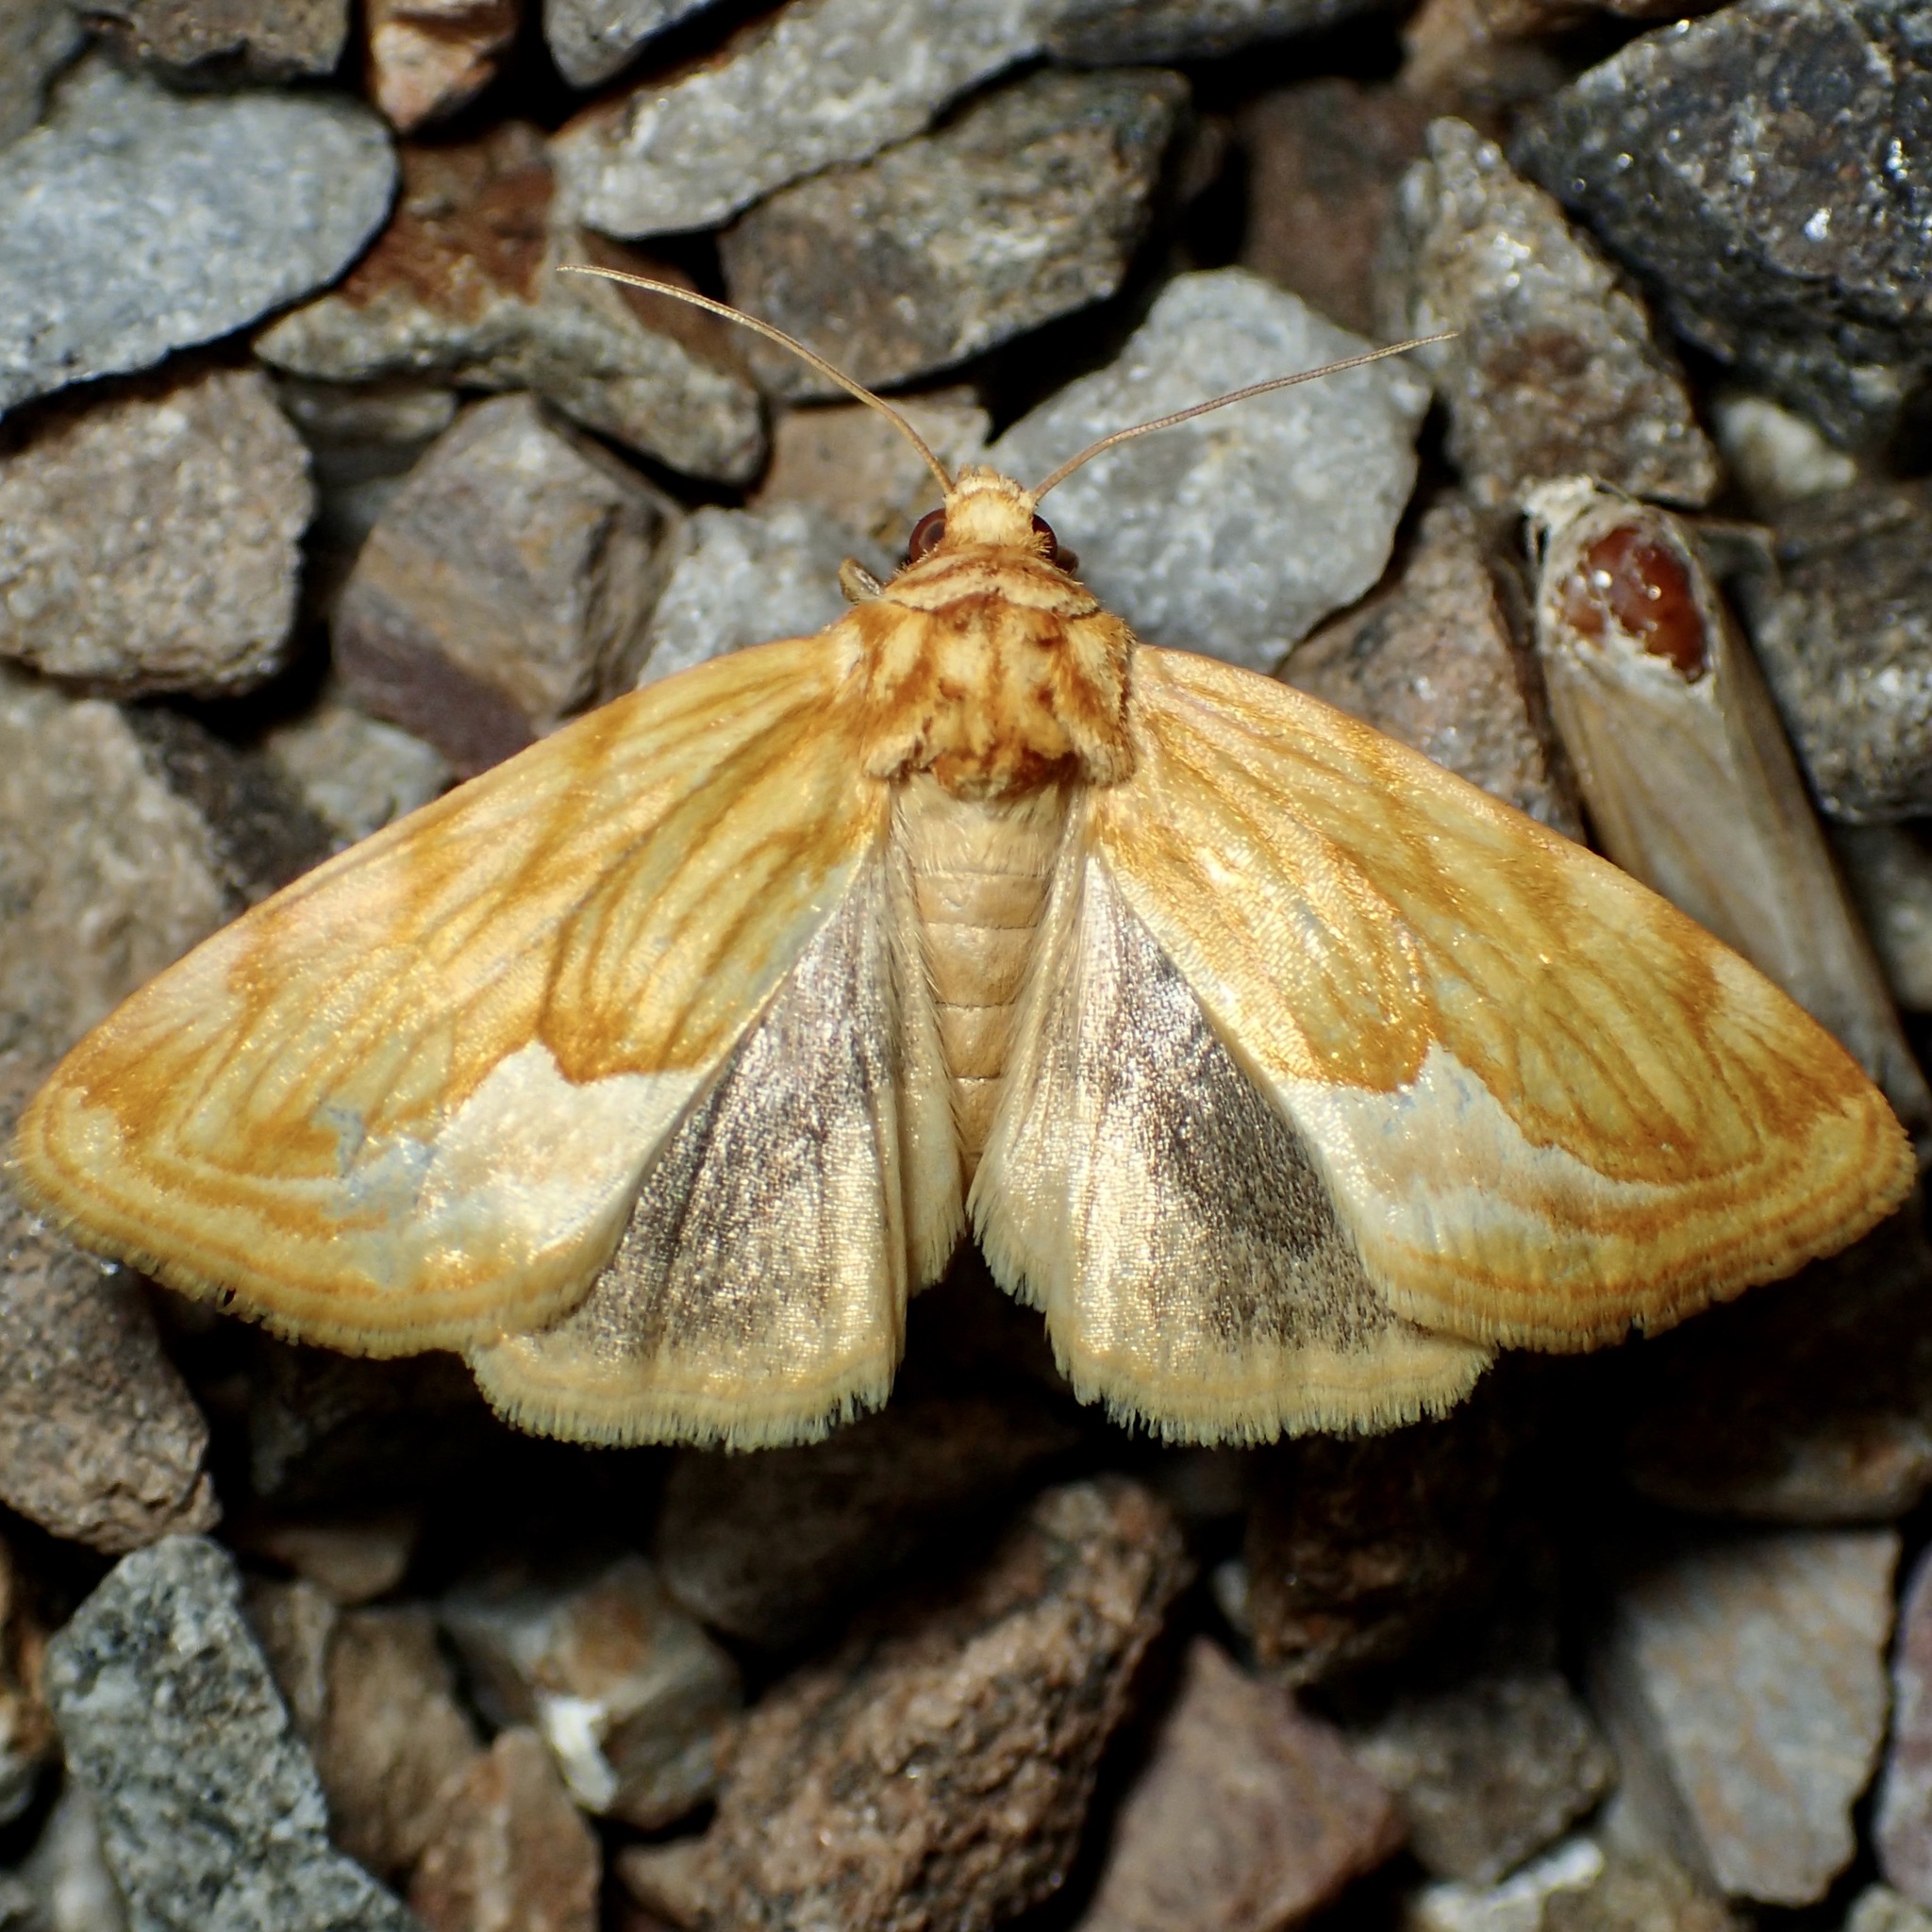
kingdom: Animalia
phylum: Arthropoda
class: Insecta
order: Lepidoptera
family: Noctuidae
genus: Cirrhophanus
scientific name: Cirrhophanus dyari
